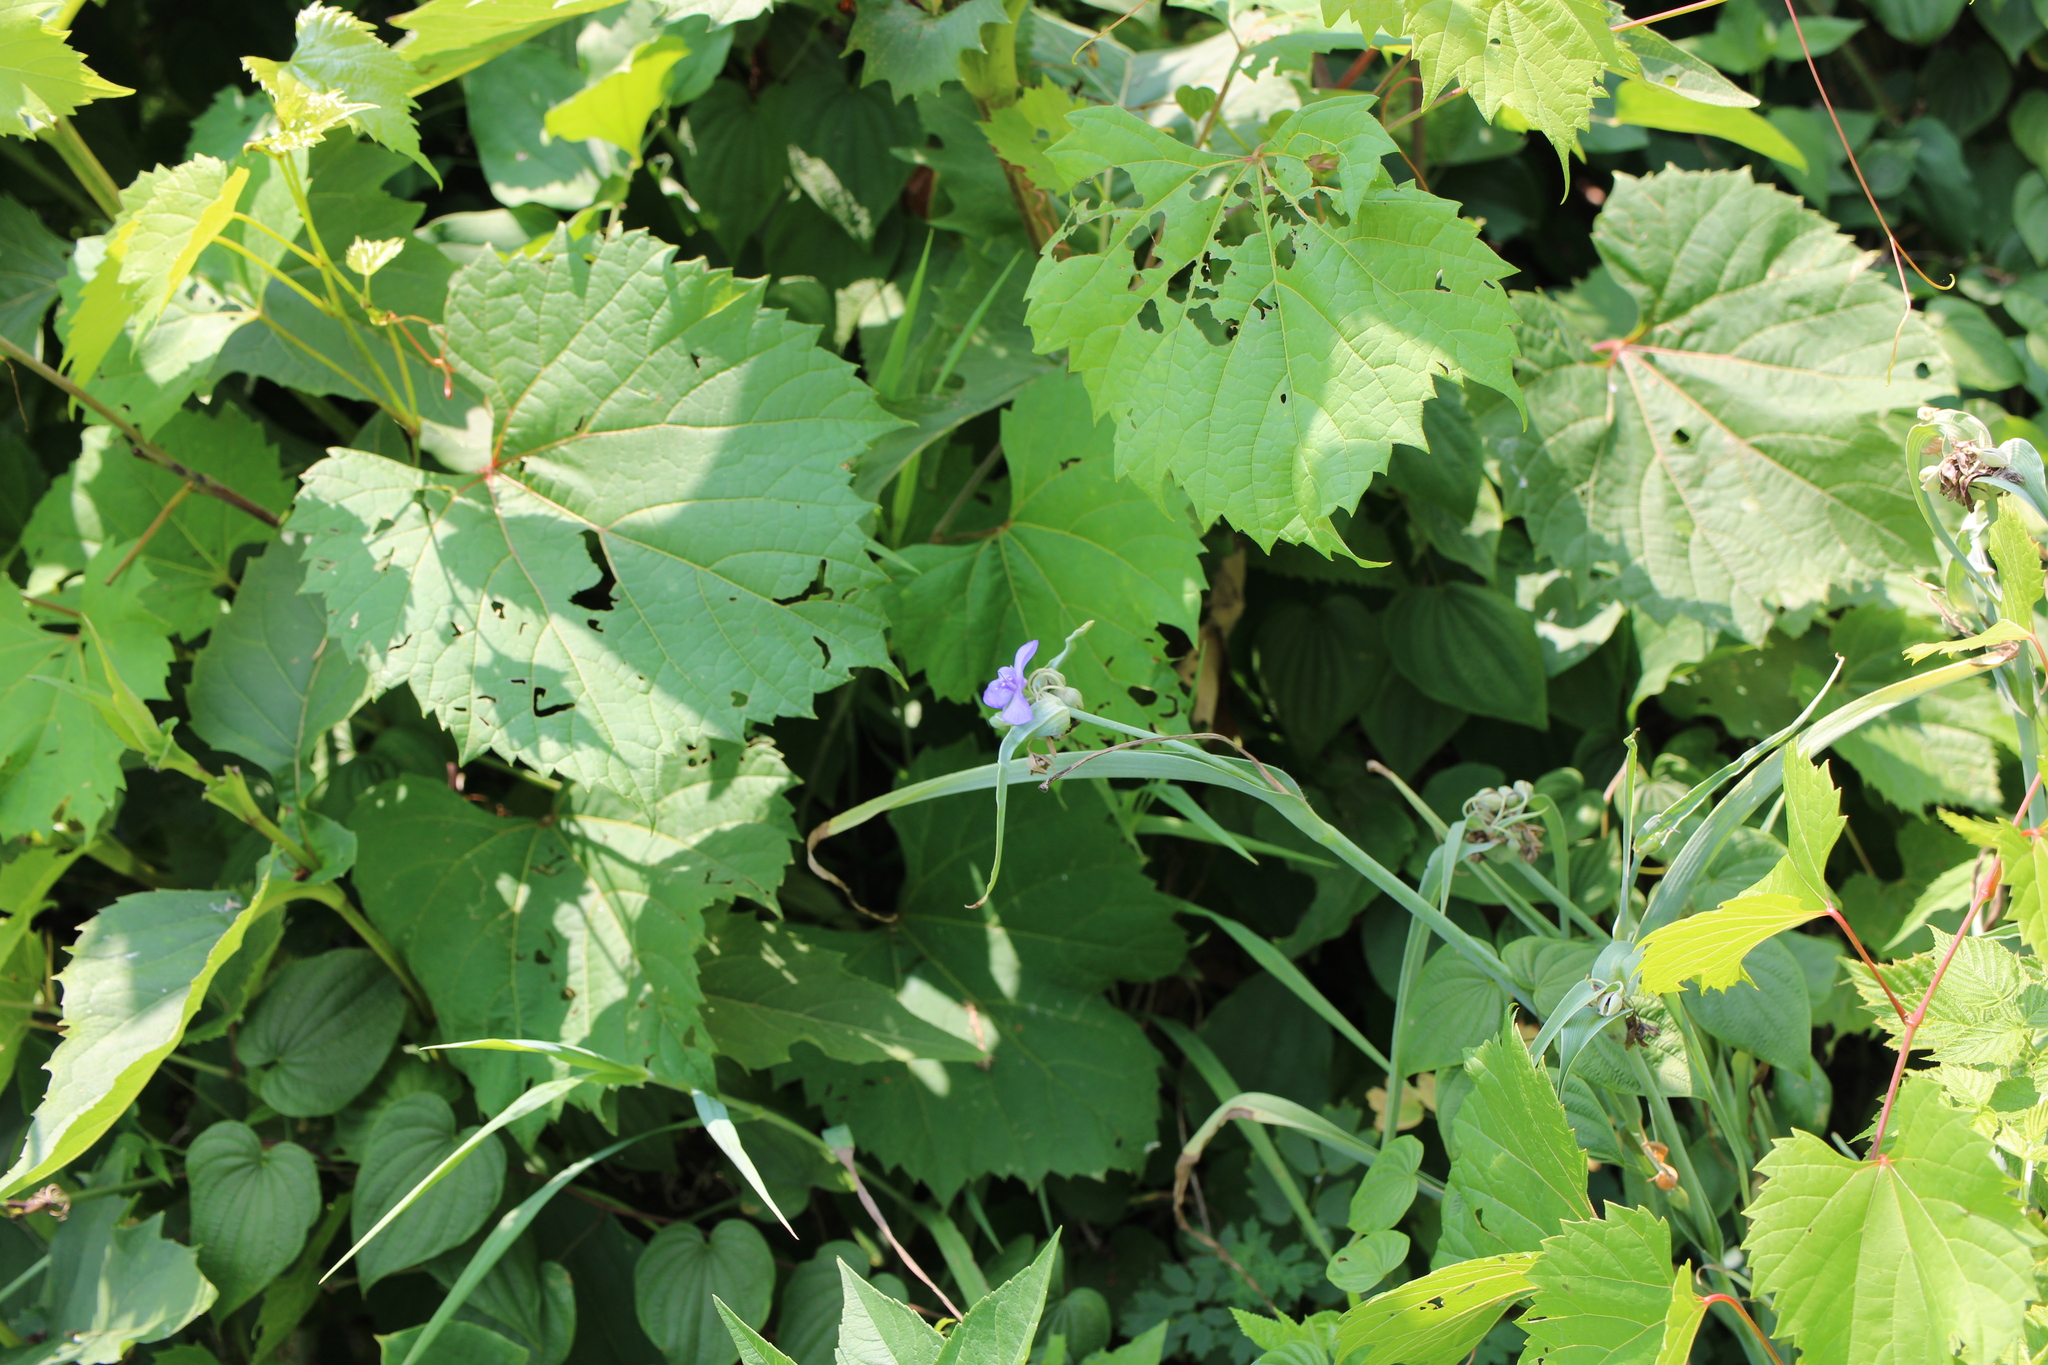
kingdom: Plantae
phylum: Tracheophyta
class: Liliopsida
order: Commelinales
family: Commelinaceae
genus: Tradescantia
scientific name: Tradescantia ohiensis
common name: Ohio spiderwort
